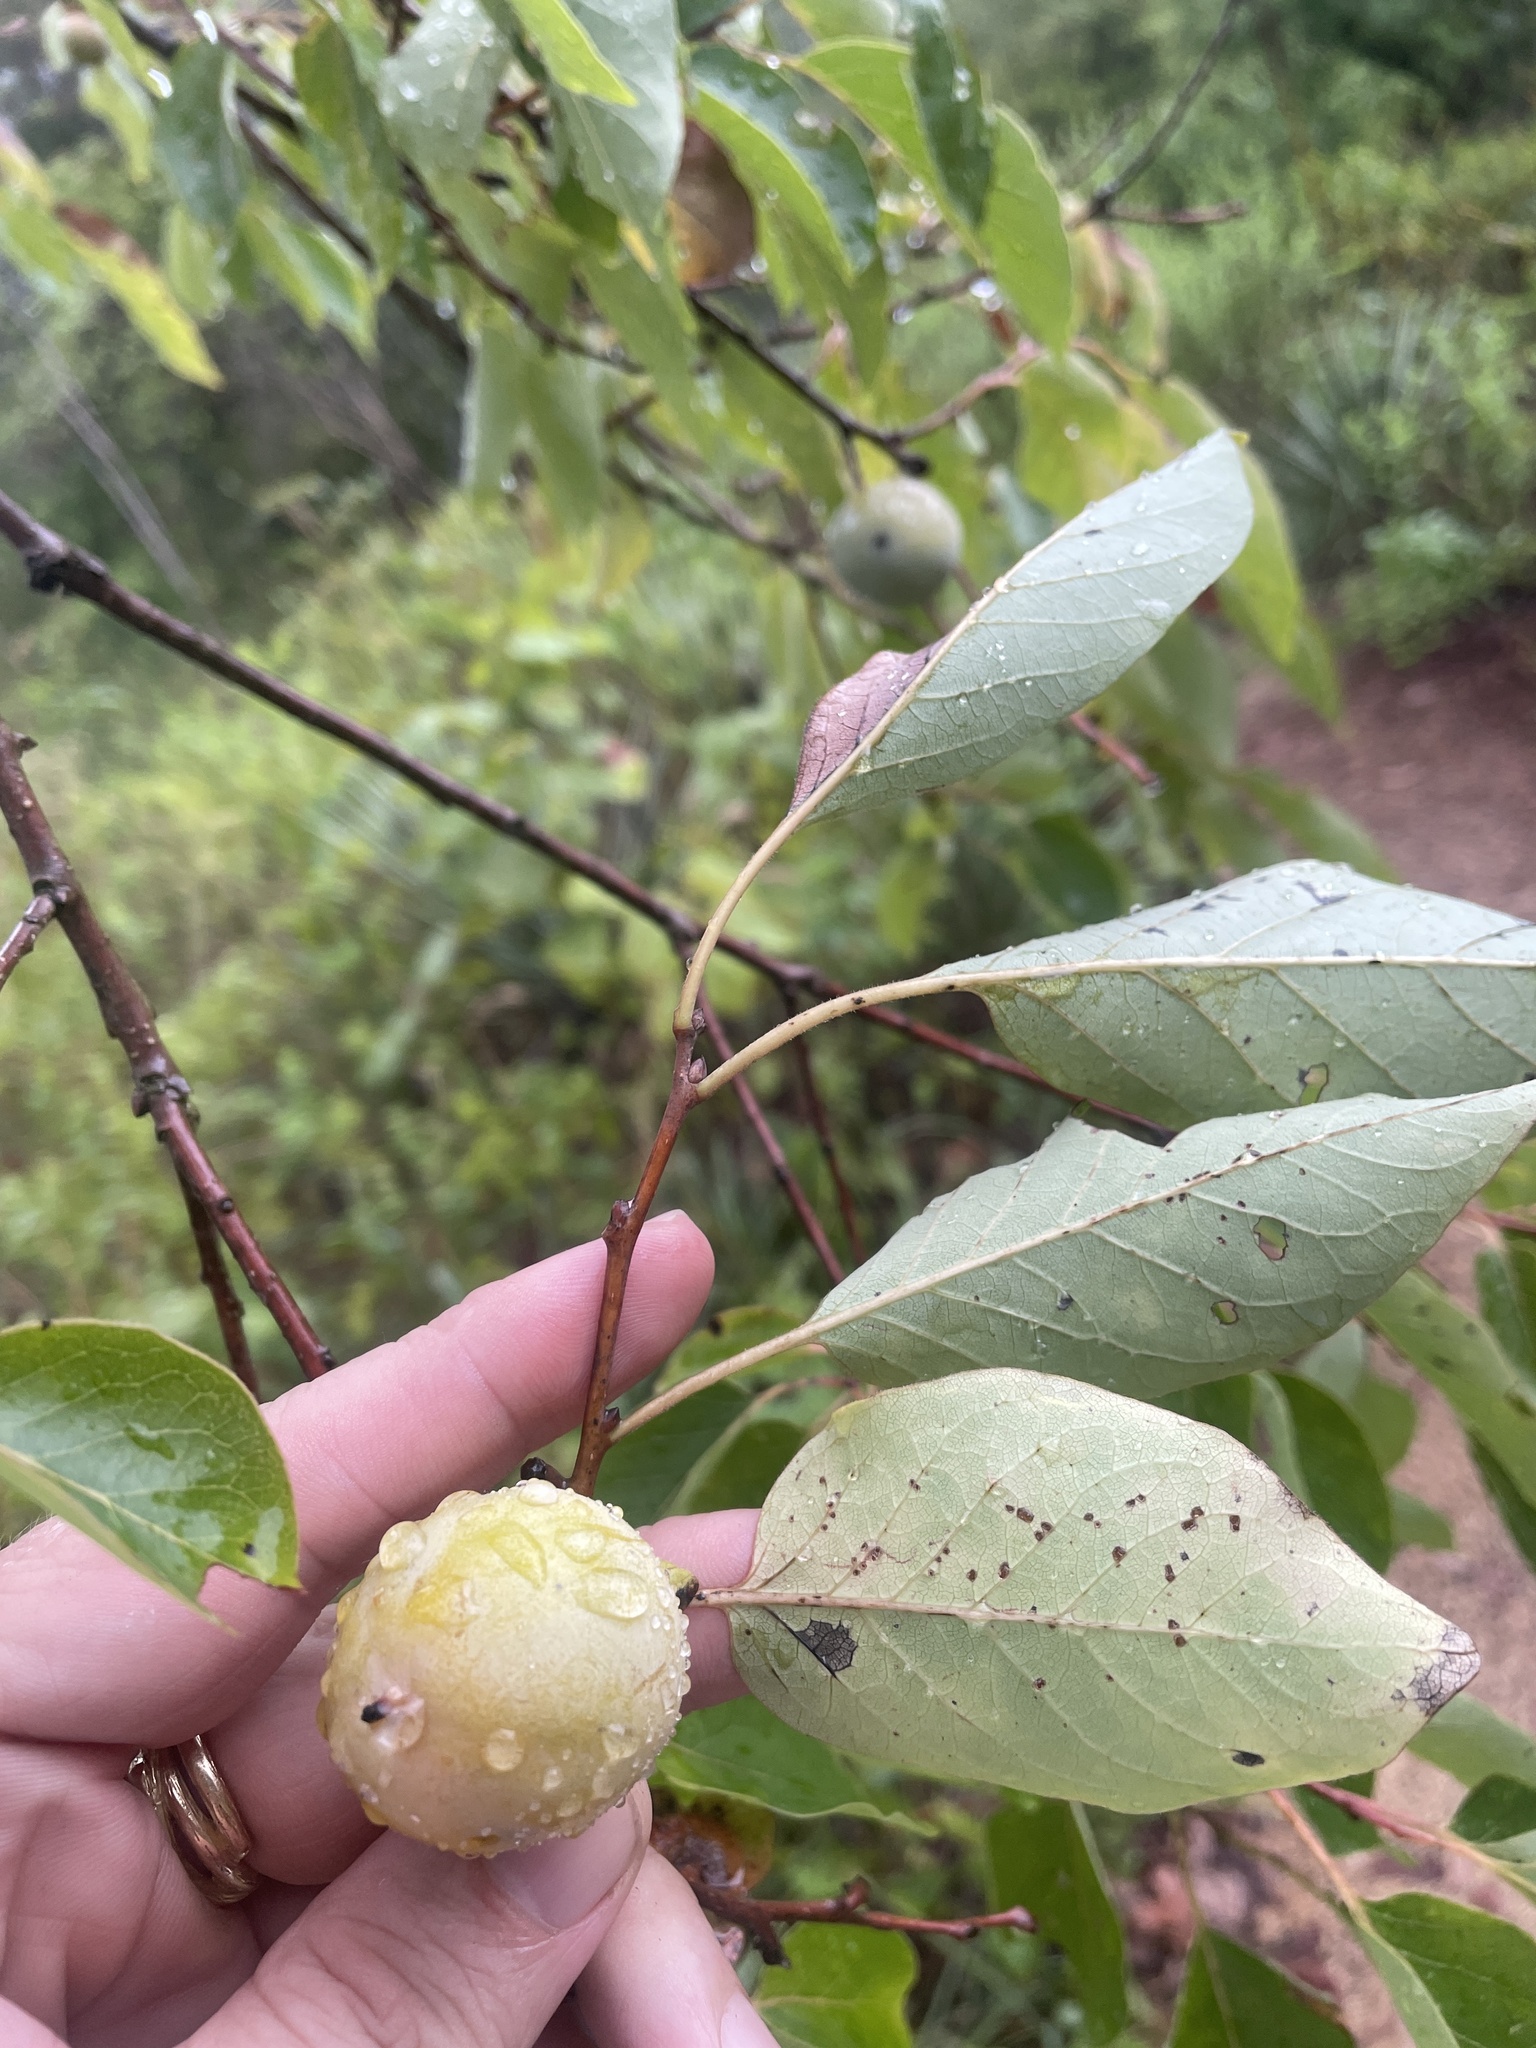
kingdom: Plantae
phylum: Tracheophyta
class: Magnoliopsida
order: Ericales
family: Ebenaceae
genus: Diospyros
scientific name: Diospyros virginiana
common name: Persimmon
